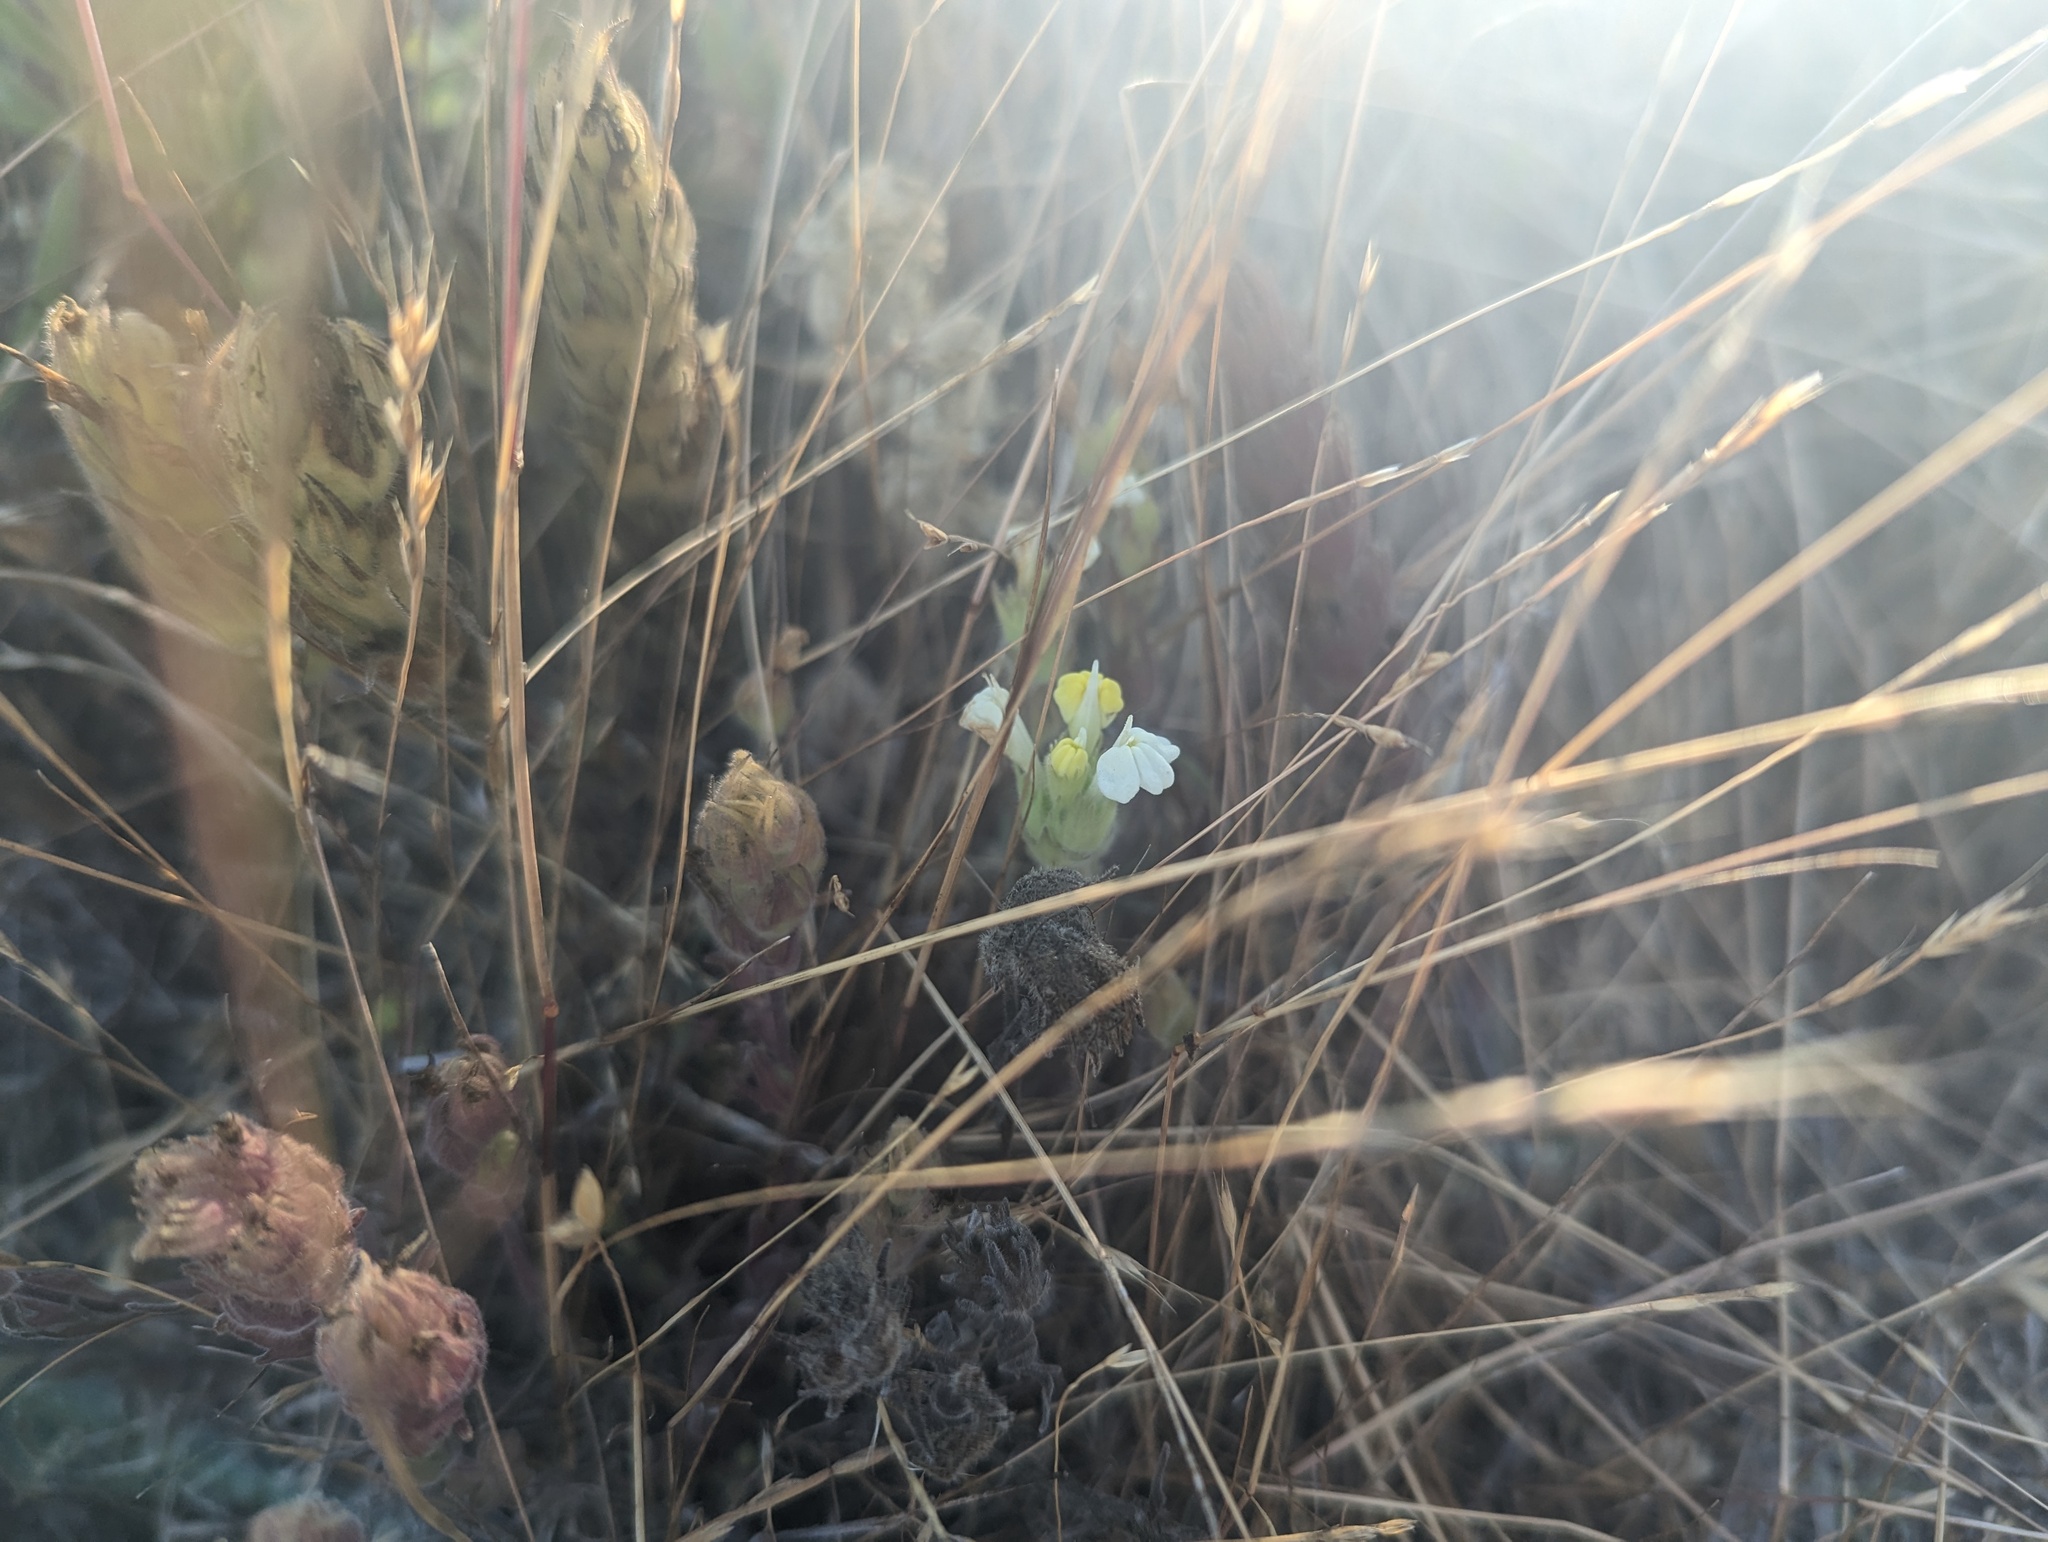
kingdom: Plantae
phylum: Tracheophyta
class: Magnoliopsida
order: Lamiales
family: Orobanchaceae
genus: Castilleja
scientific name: Castilleja rubicundula
